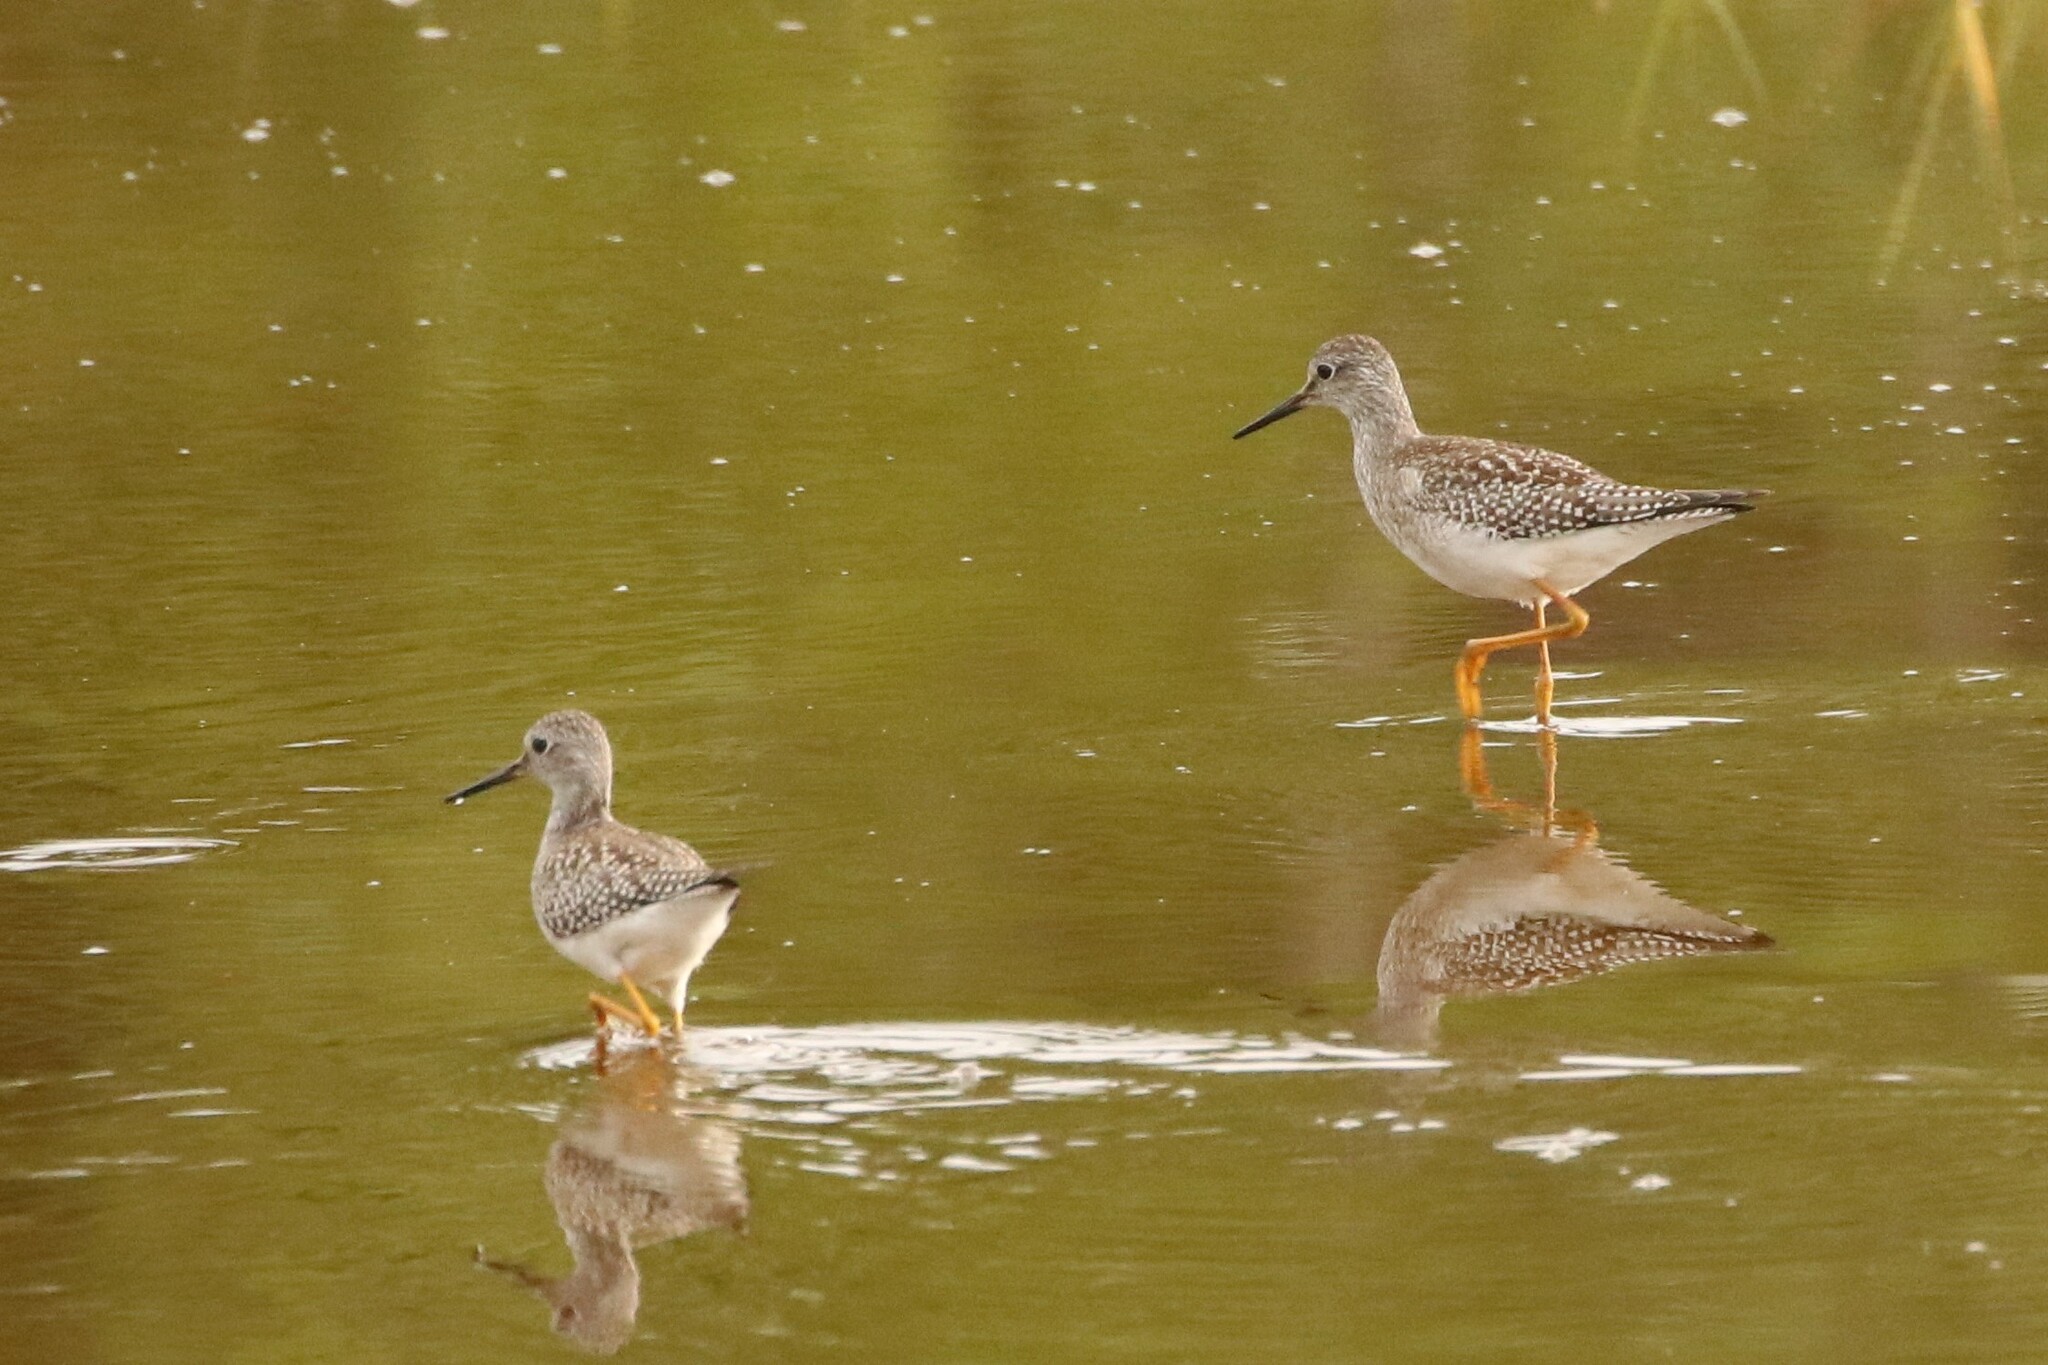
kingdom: Animalia
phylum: Chordata
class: Aves
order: Charadriiformes
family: Scolopacidae
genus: Tringa
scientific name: Tringa flavipes
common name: Lesser yellowlegs
